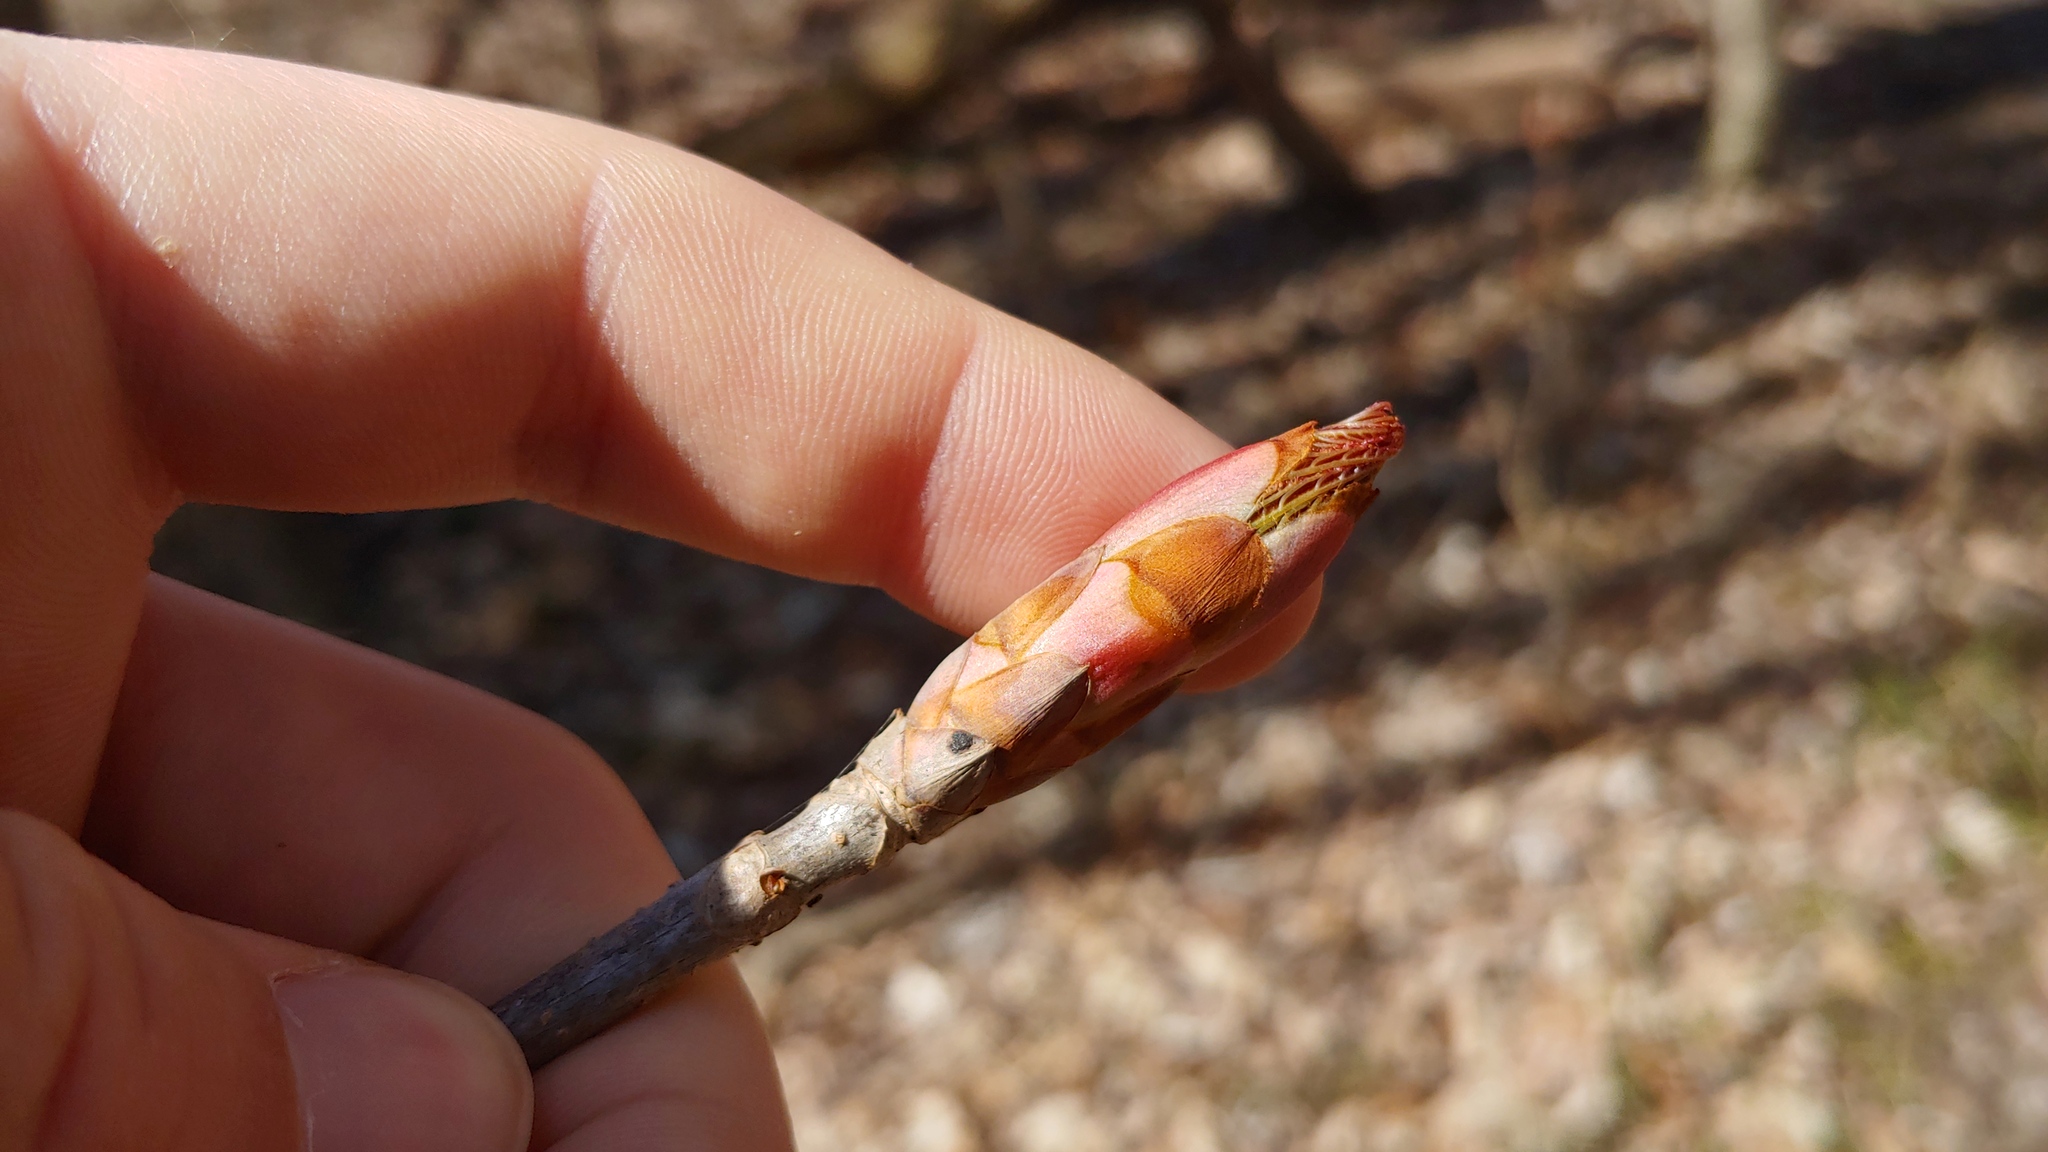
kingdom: Plantae
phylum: Tracheophyta
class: Magnoliopsida
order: Sapindales
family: Sapindaceae
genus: Aesculus
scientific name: Aesculus glabra
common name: Ohio buckeye
